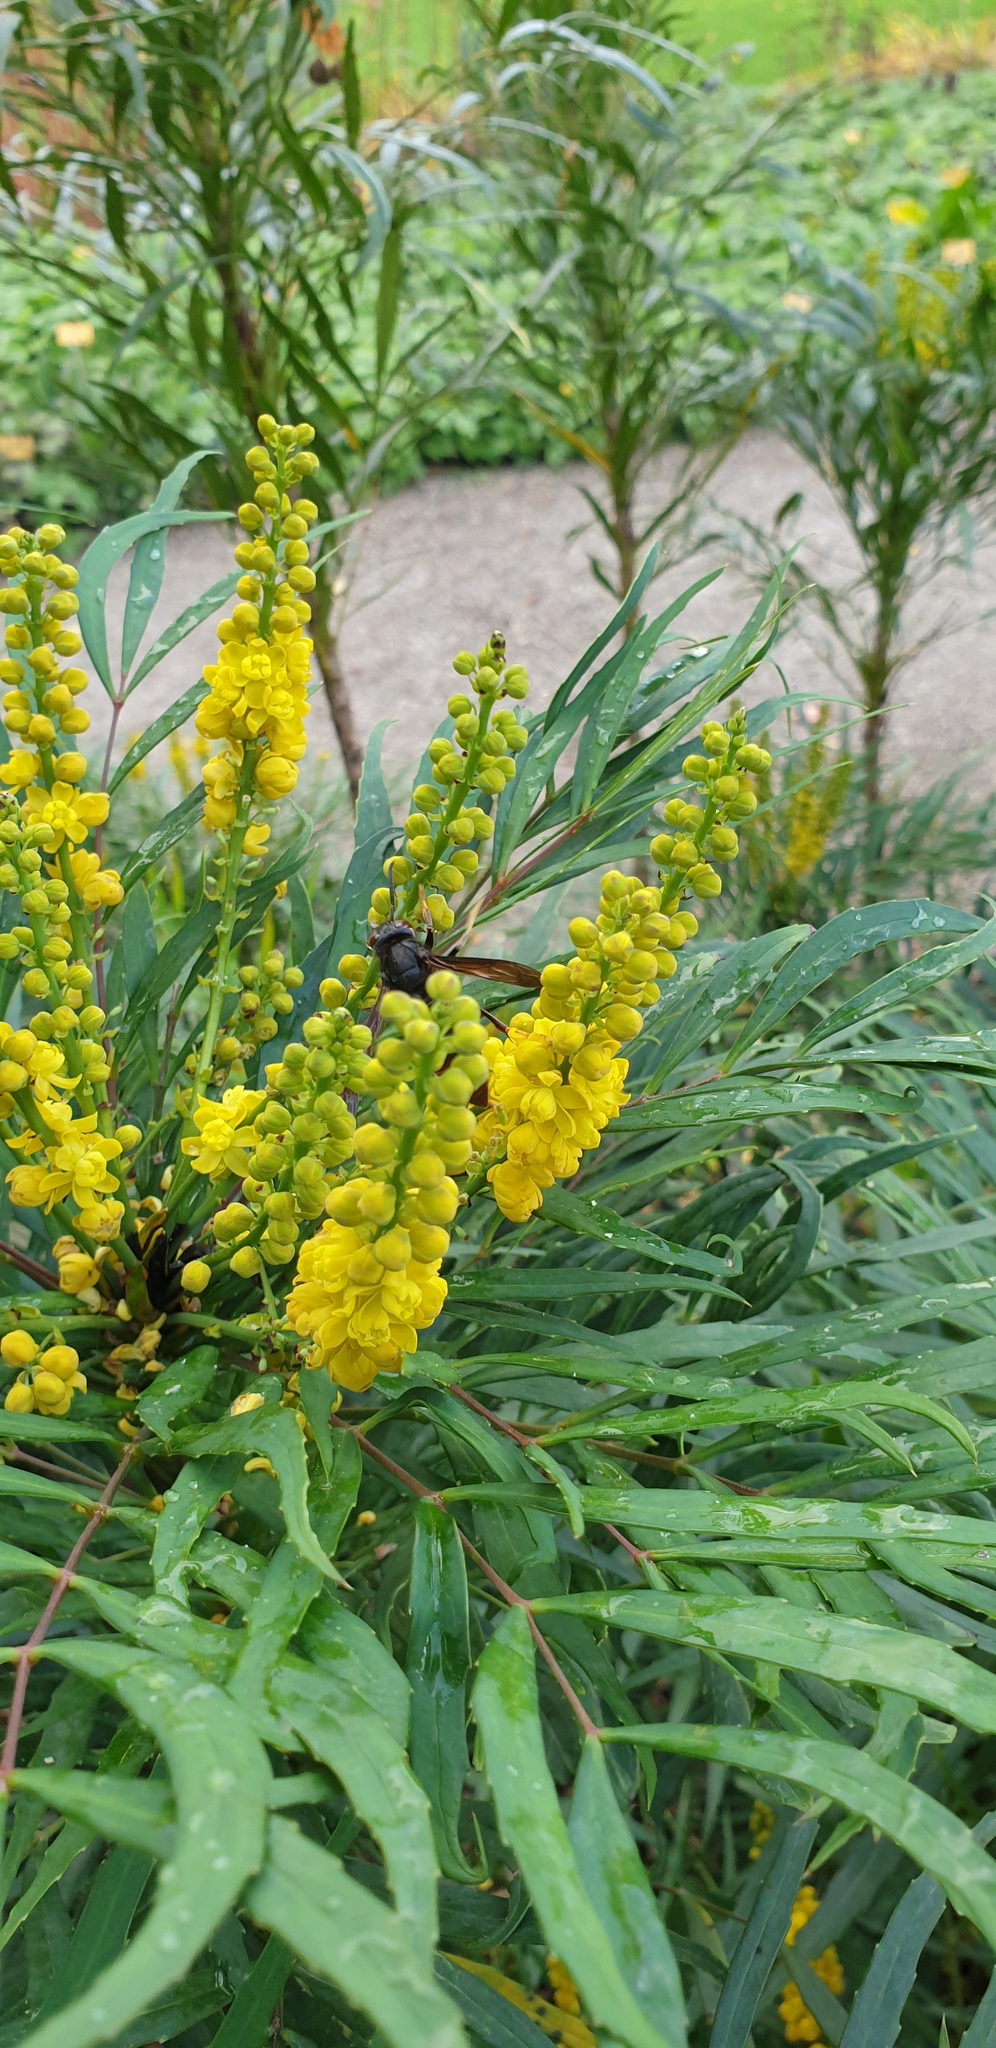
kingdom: Animalia
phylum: Arthropoda
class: Insecta
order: Hymenoptera
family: Vespidae
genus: Vespa
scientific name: Vespa velutina
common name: Asian hornet
